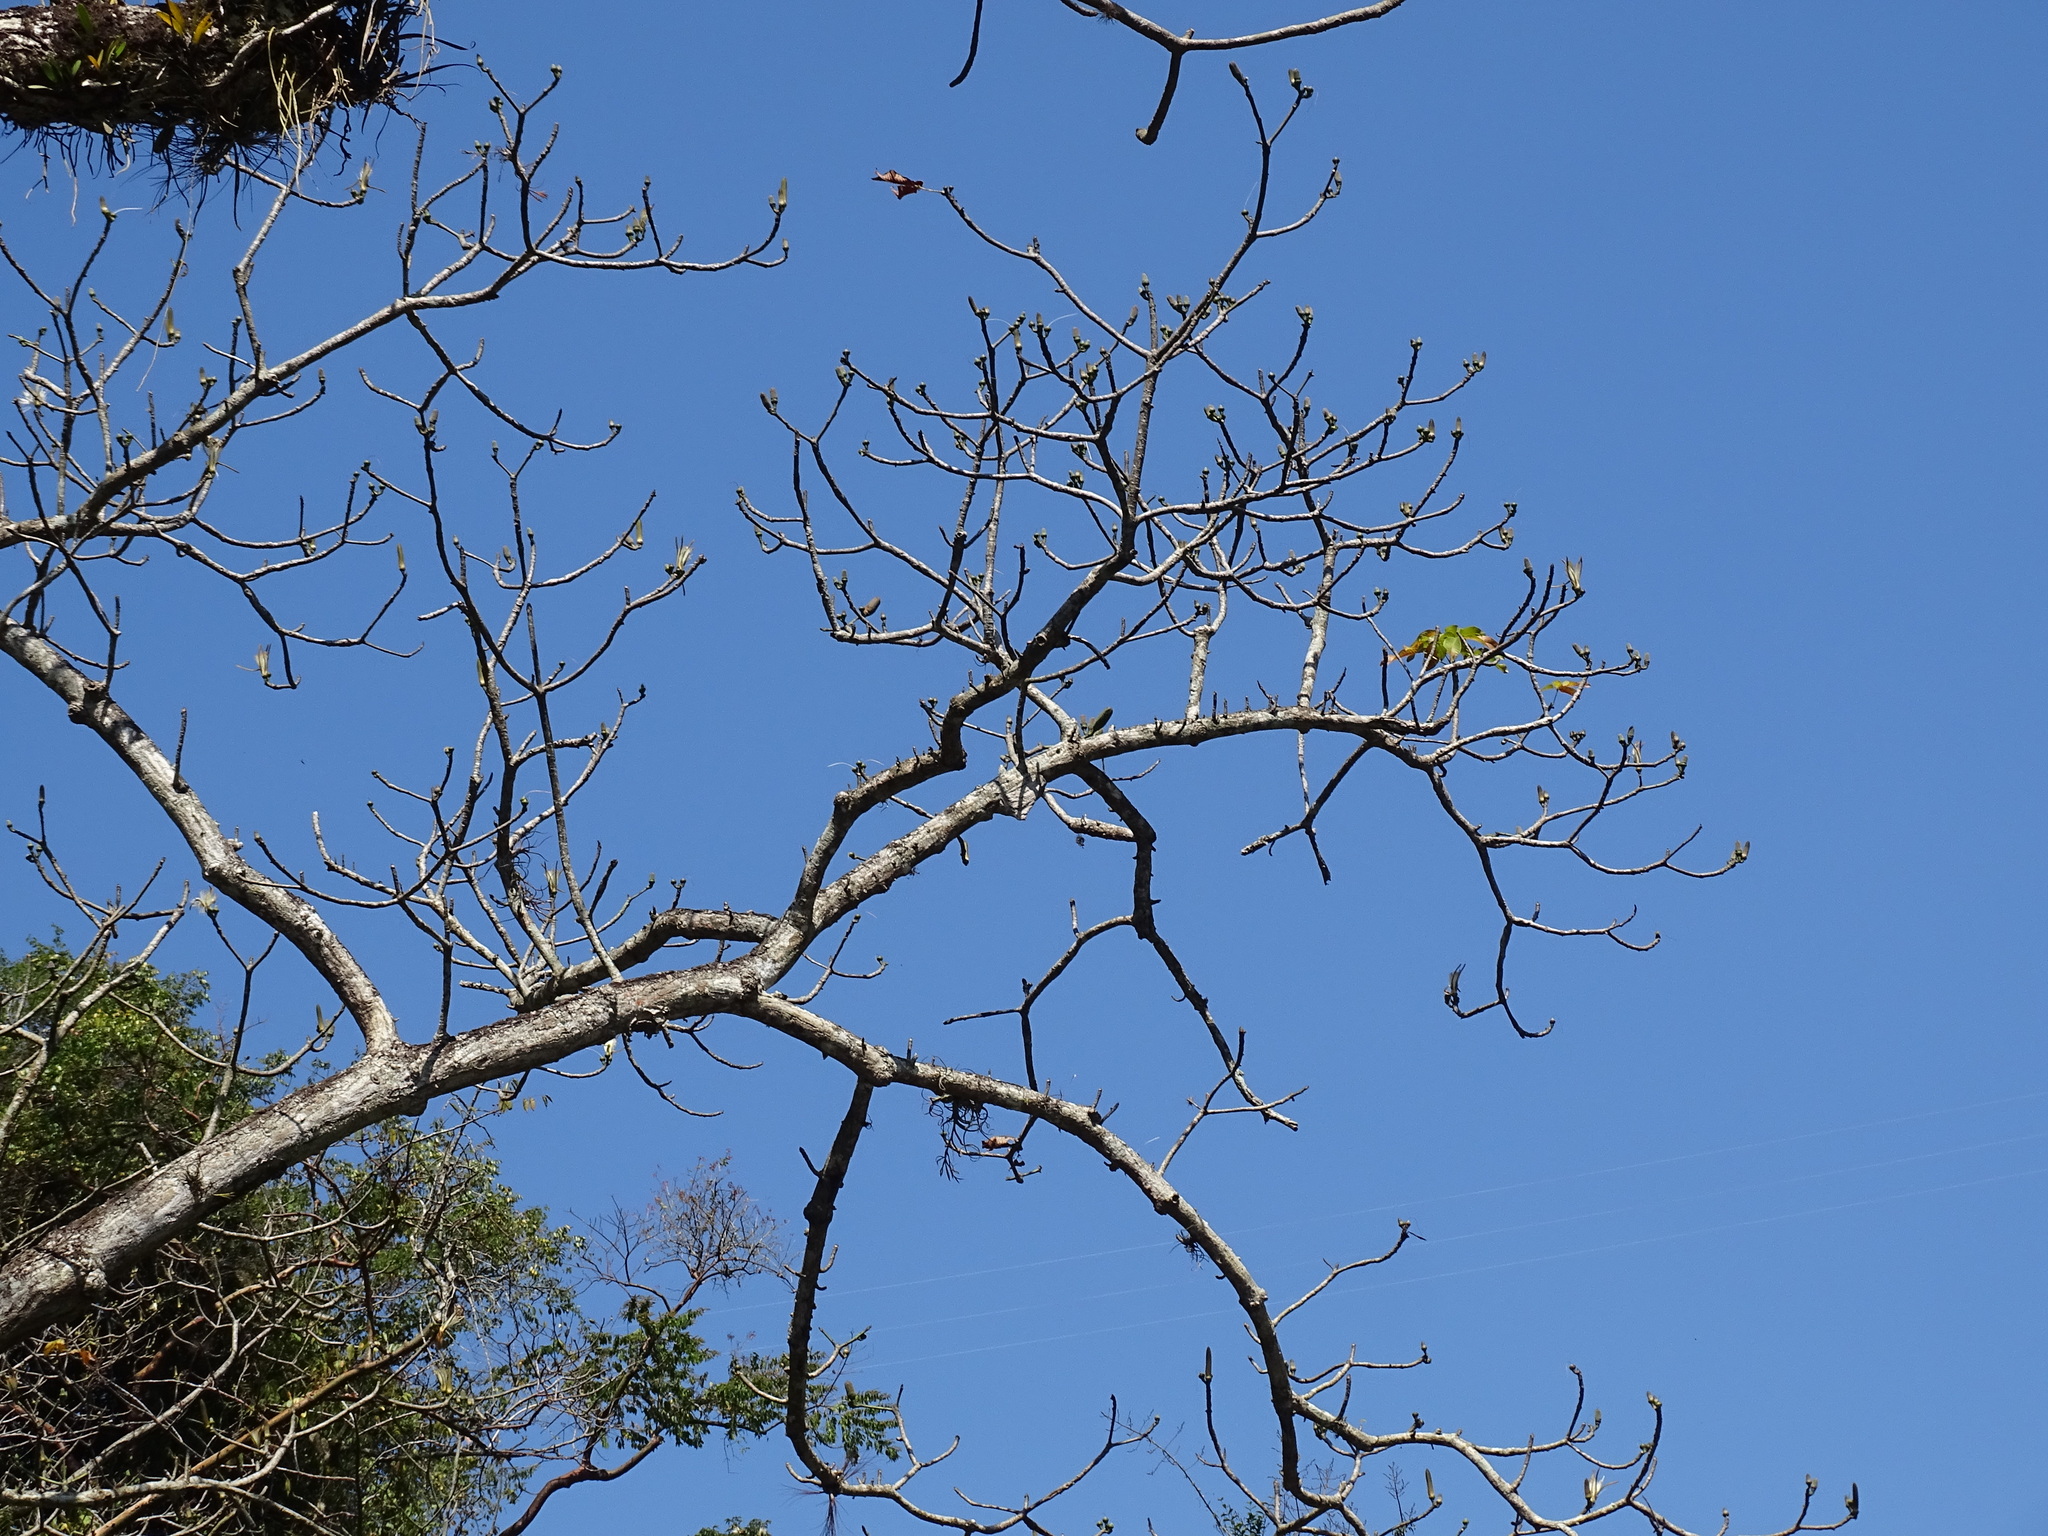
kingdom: Plantae
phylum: Tracheophyta
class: Magnoliopsida
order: Malvales
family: Malvaceae
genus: Pseudobombax
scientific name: Pseudobombax ellipticum
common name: Shaving-brush-tree
